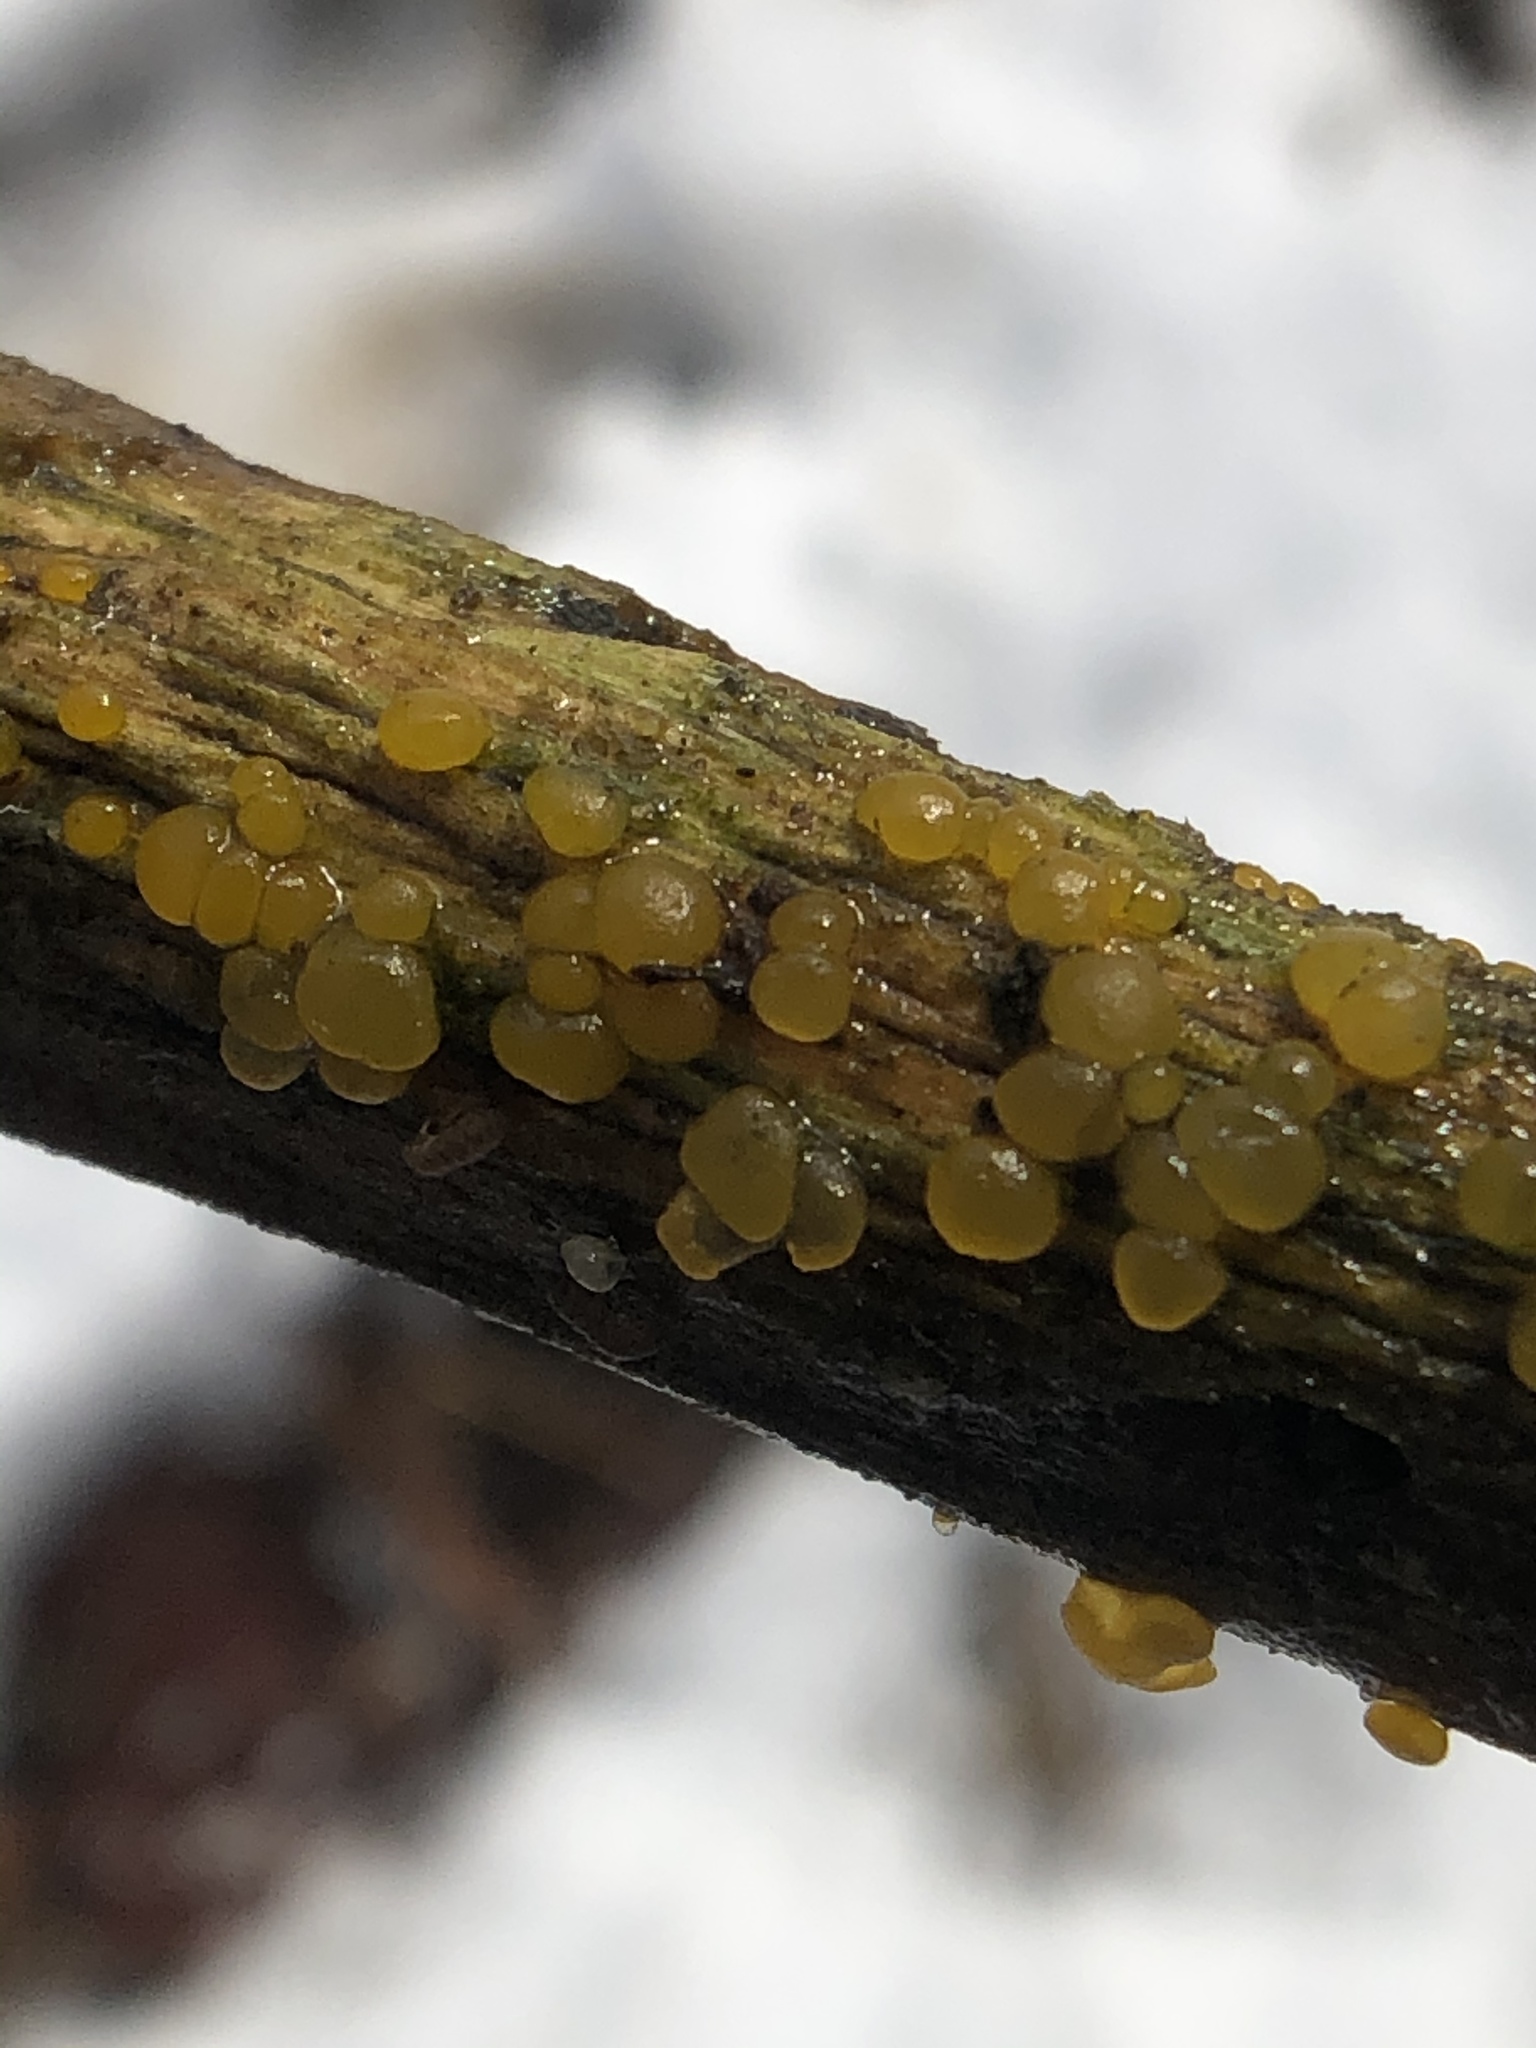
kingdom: Fungi
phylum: Basidiomycota
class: Dacrymycetes
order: Dacrymycetales
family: Dacrymycetaceae
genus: Dacrymyces
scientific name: Dacrymyces capitatus
